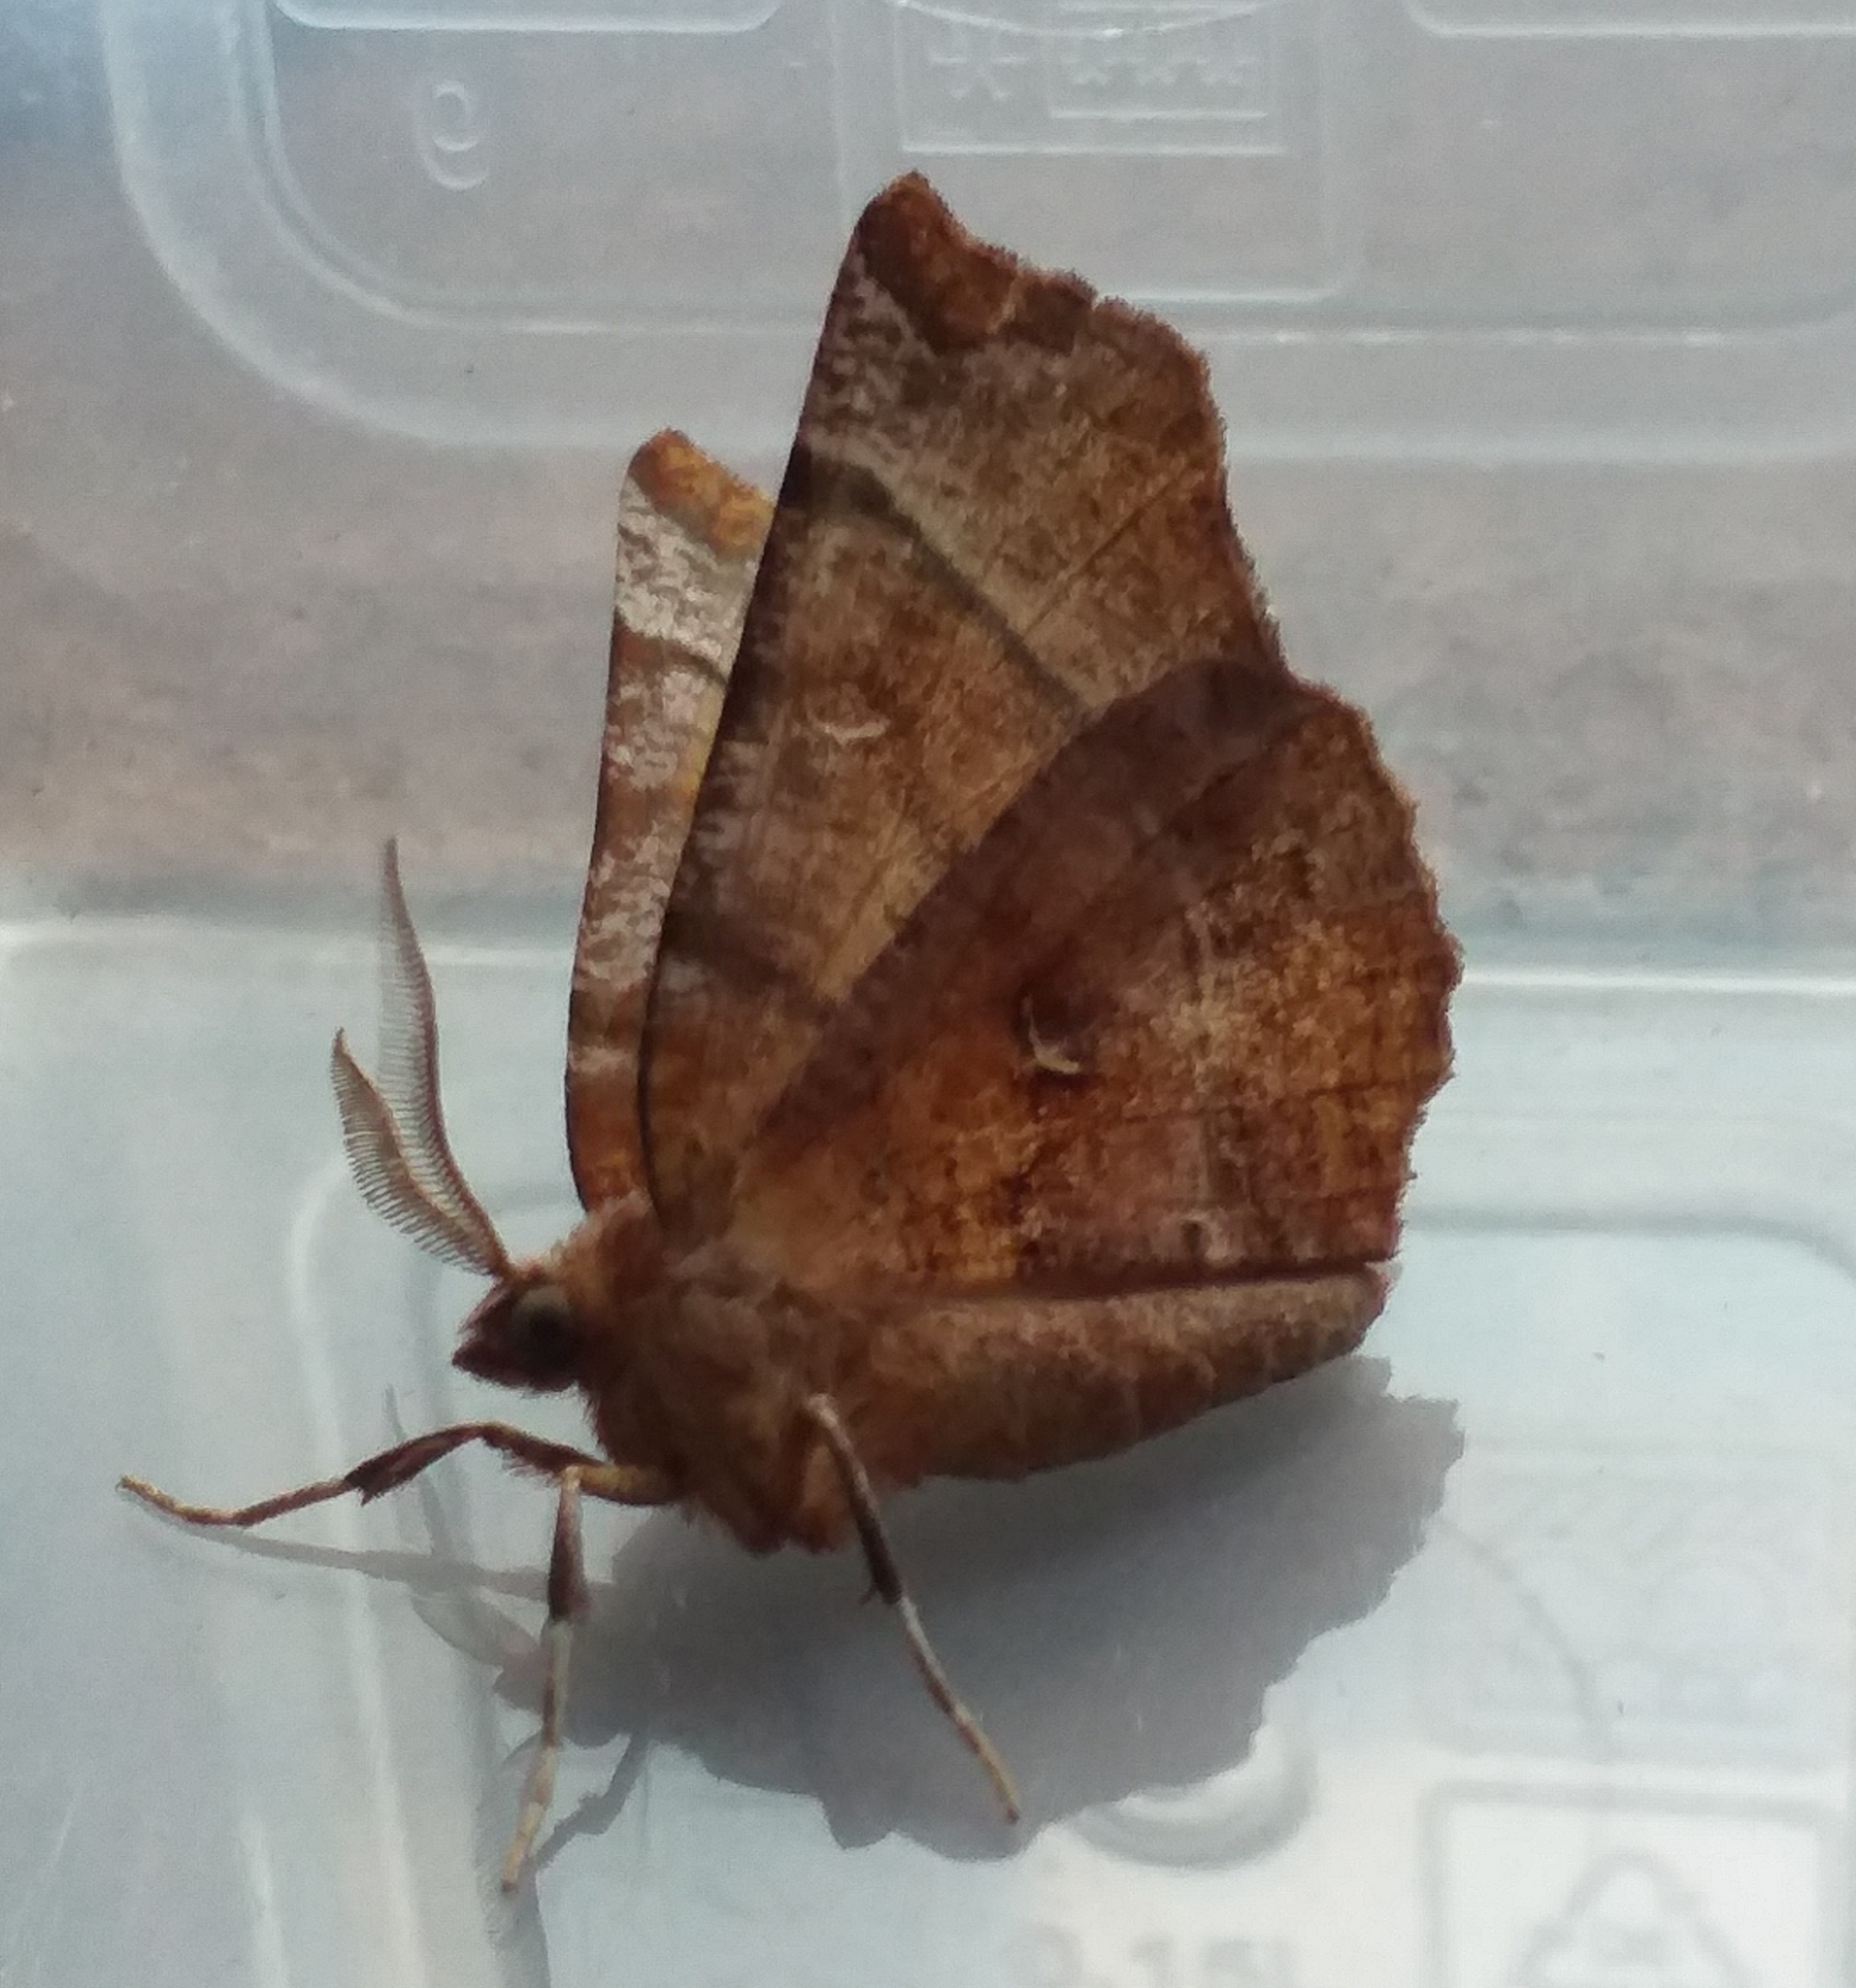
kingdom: Animalia
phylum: Arthropoda
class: Insecta
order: Lepidoptera
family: Geometridae
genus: Selenia
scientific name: Selenia dentaria
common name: Early thorn
